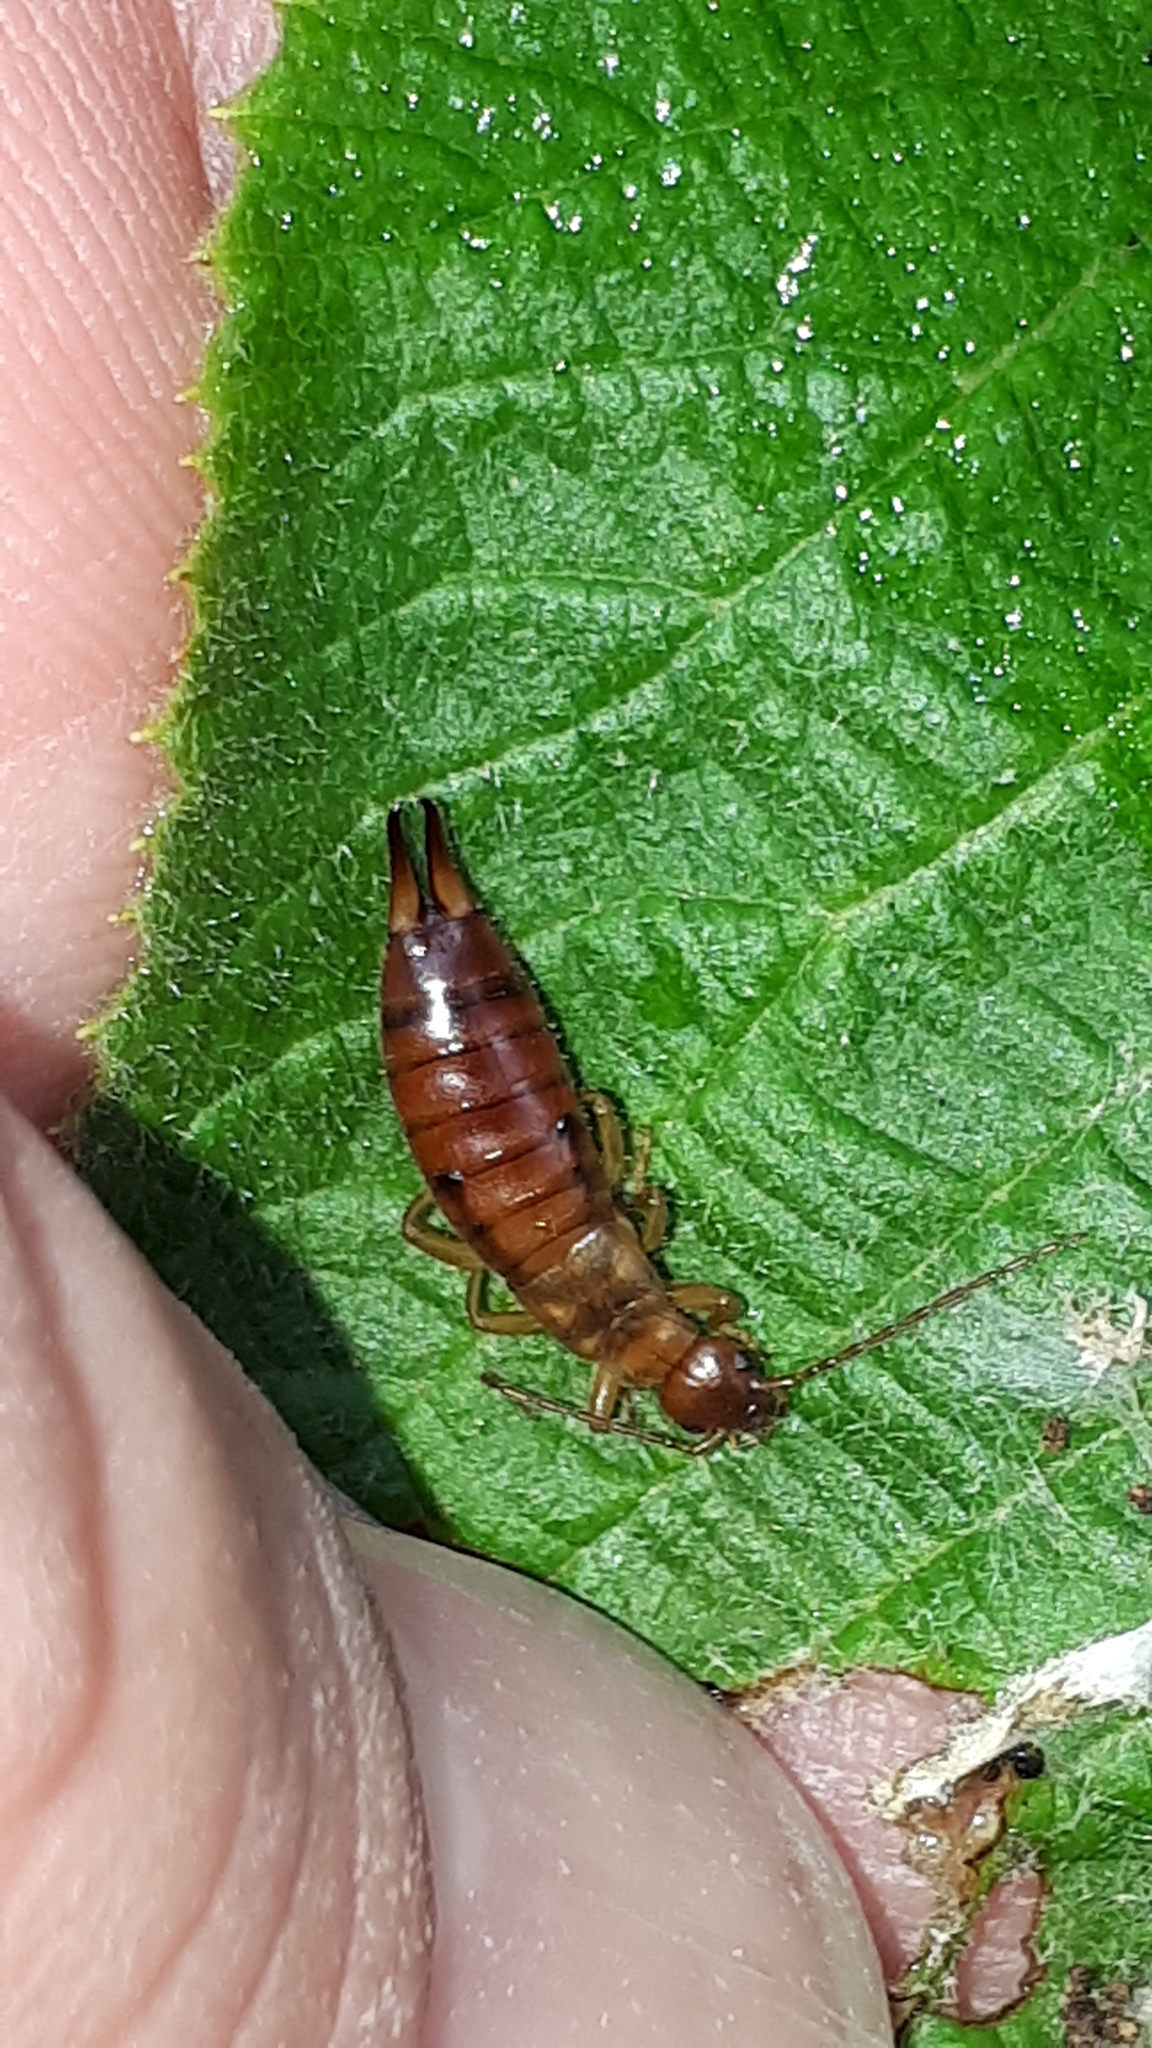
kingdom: Animalia
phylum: Arthropoda
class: Insecta
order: Dermaptera
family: Forficulidae
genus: Apterygida
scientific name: Apterygida albipennis
